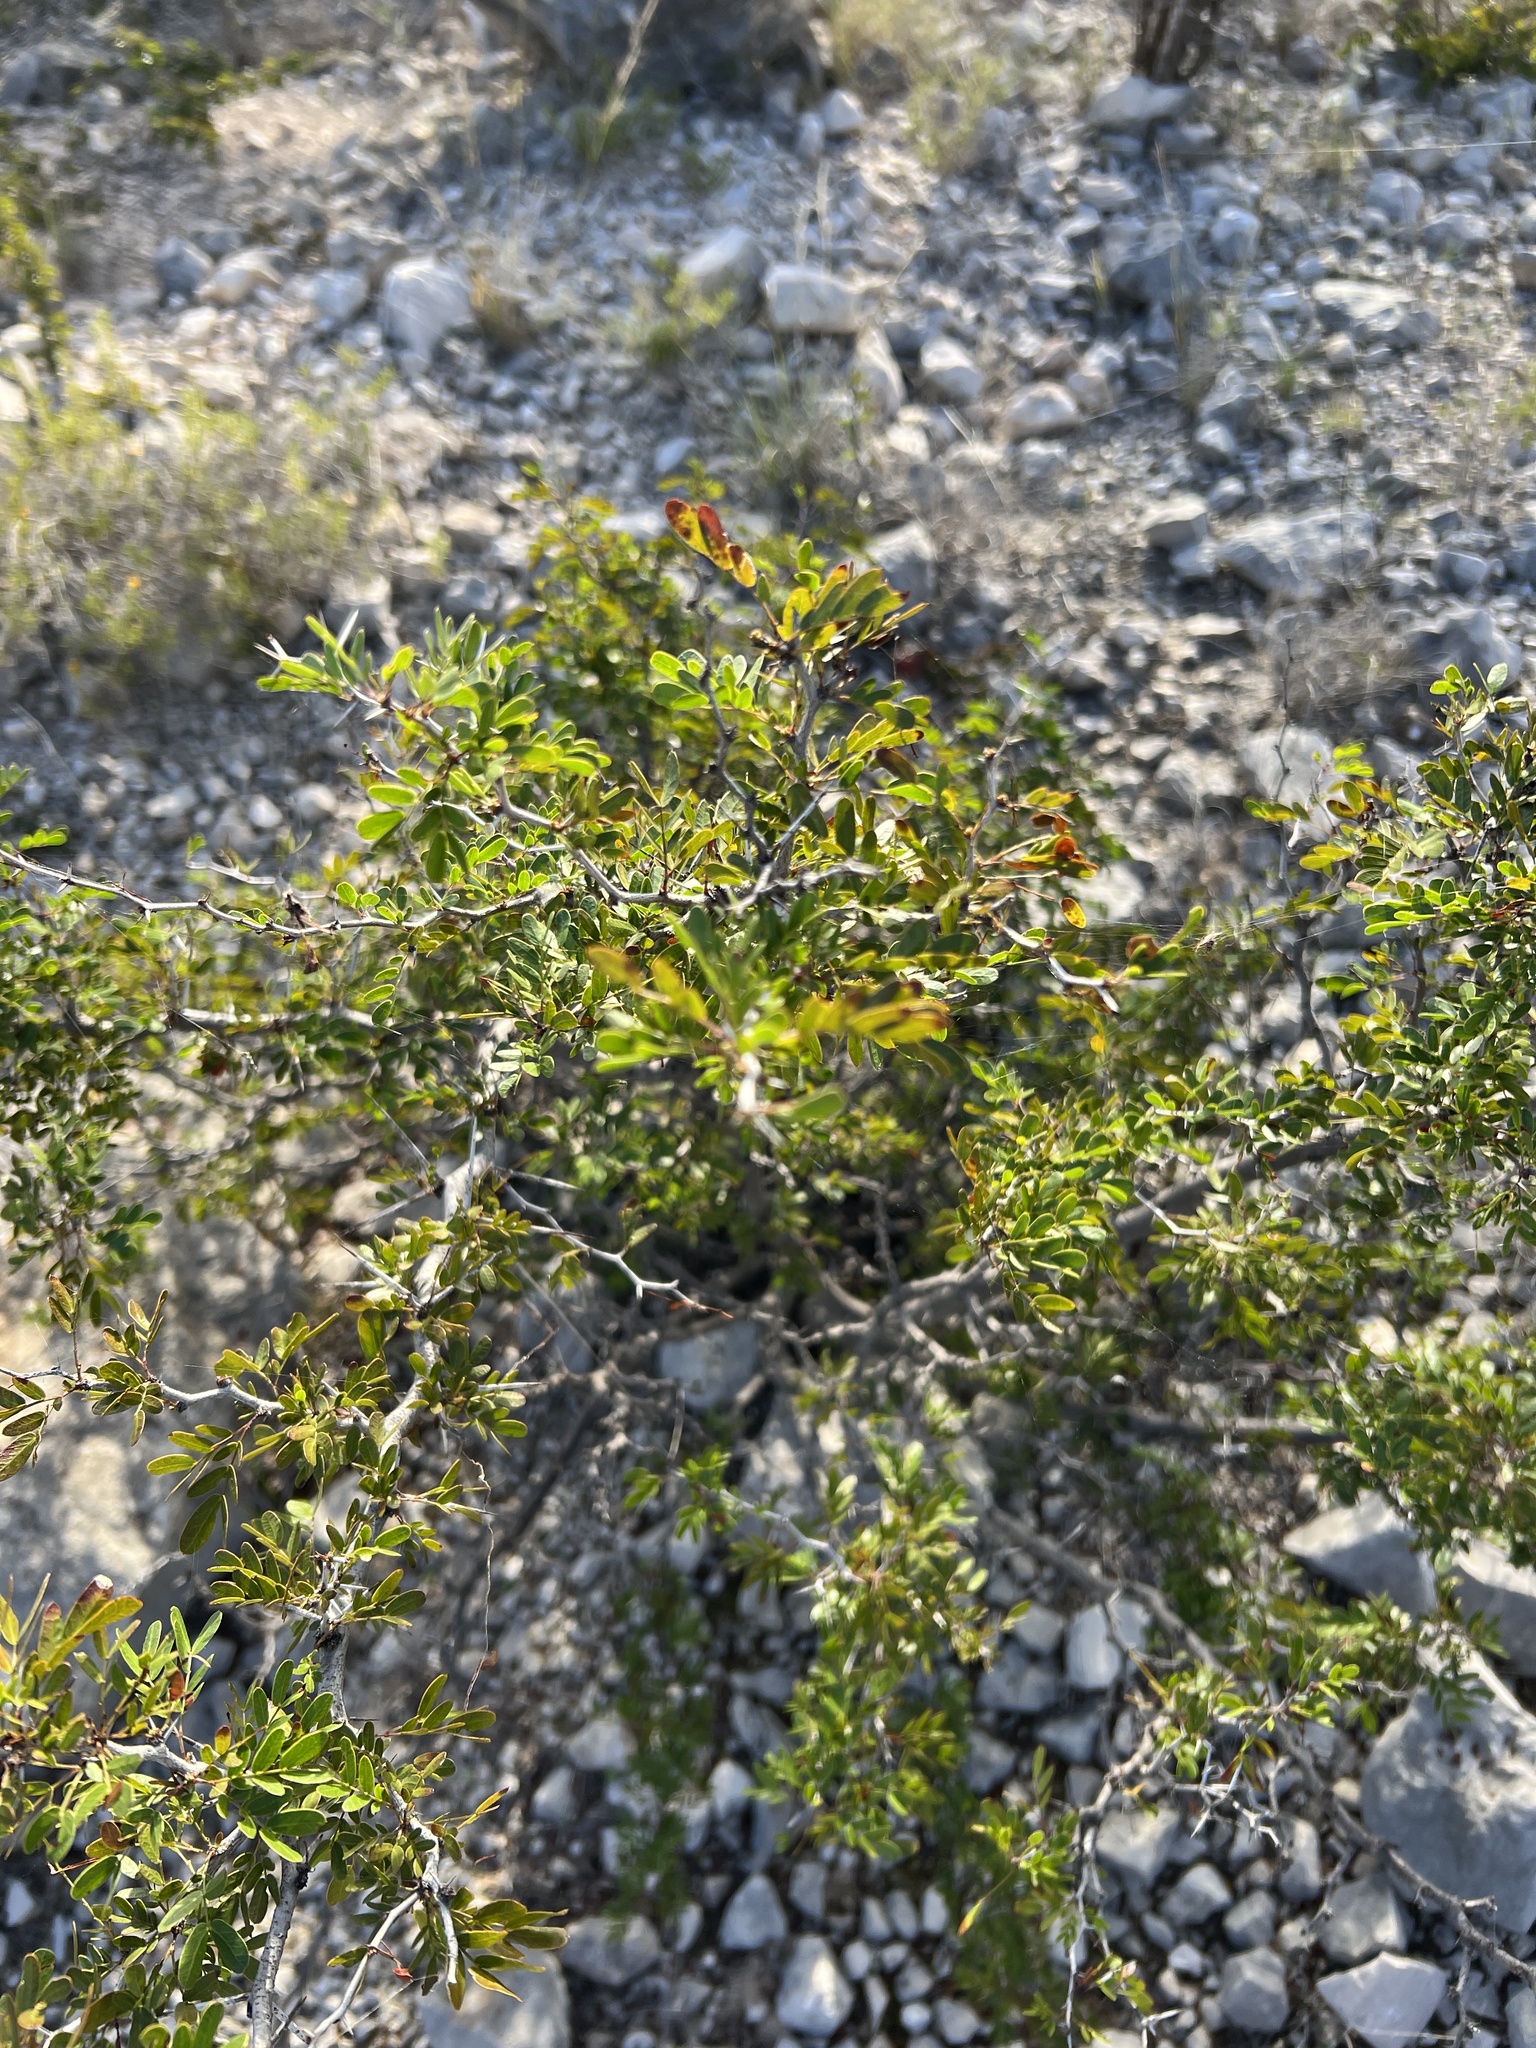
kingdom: Plantae
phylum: Tracheophyta
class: Magnoliopsida
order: Fabales
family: Fabaceae
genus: Vachellia
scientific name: Vachellia rigidula
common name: Blackbrush
